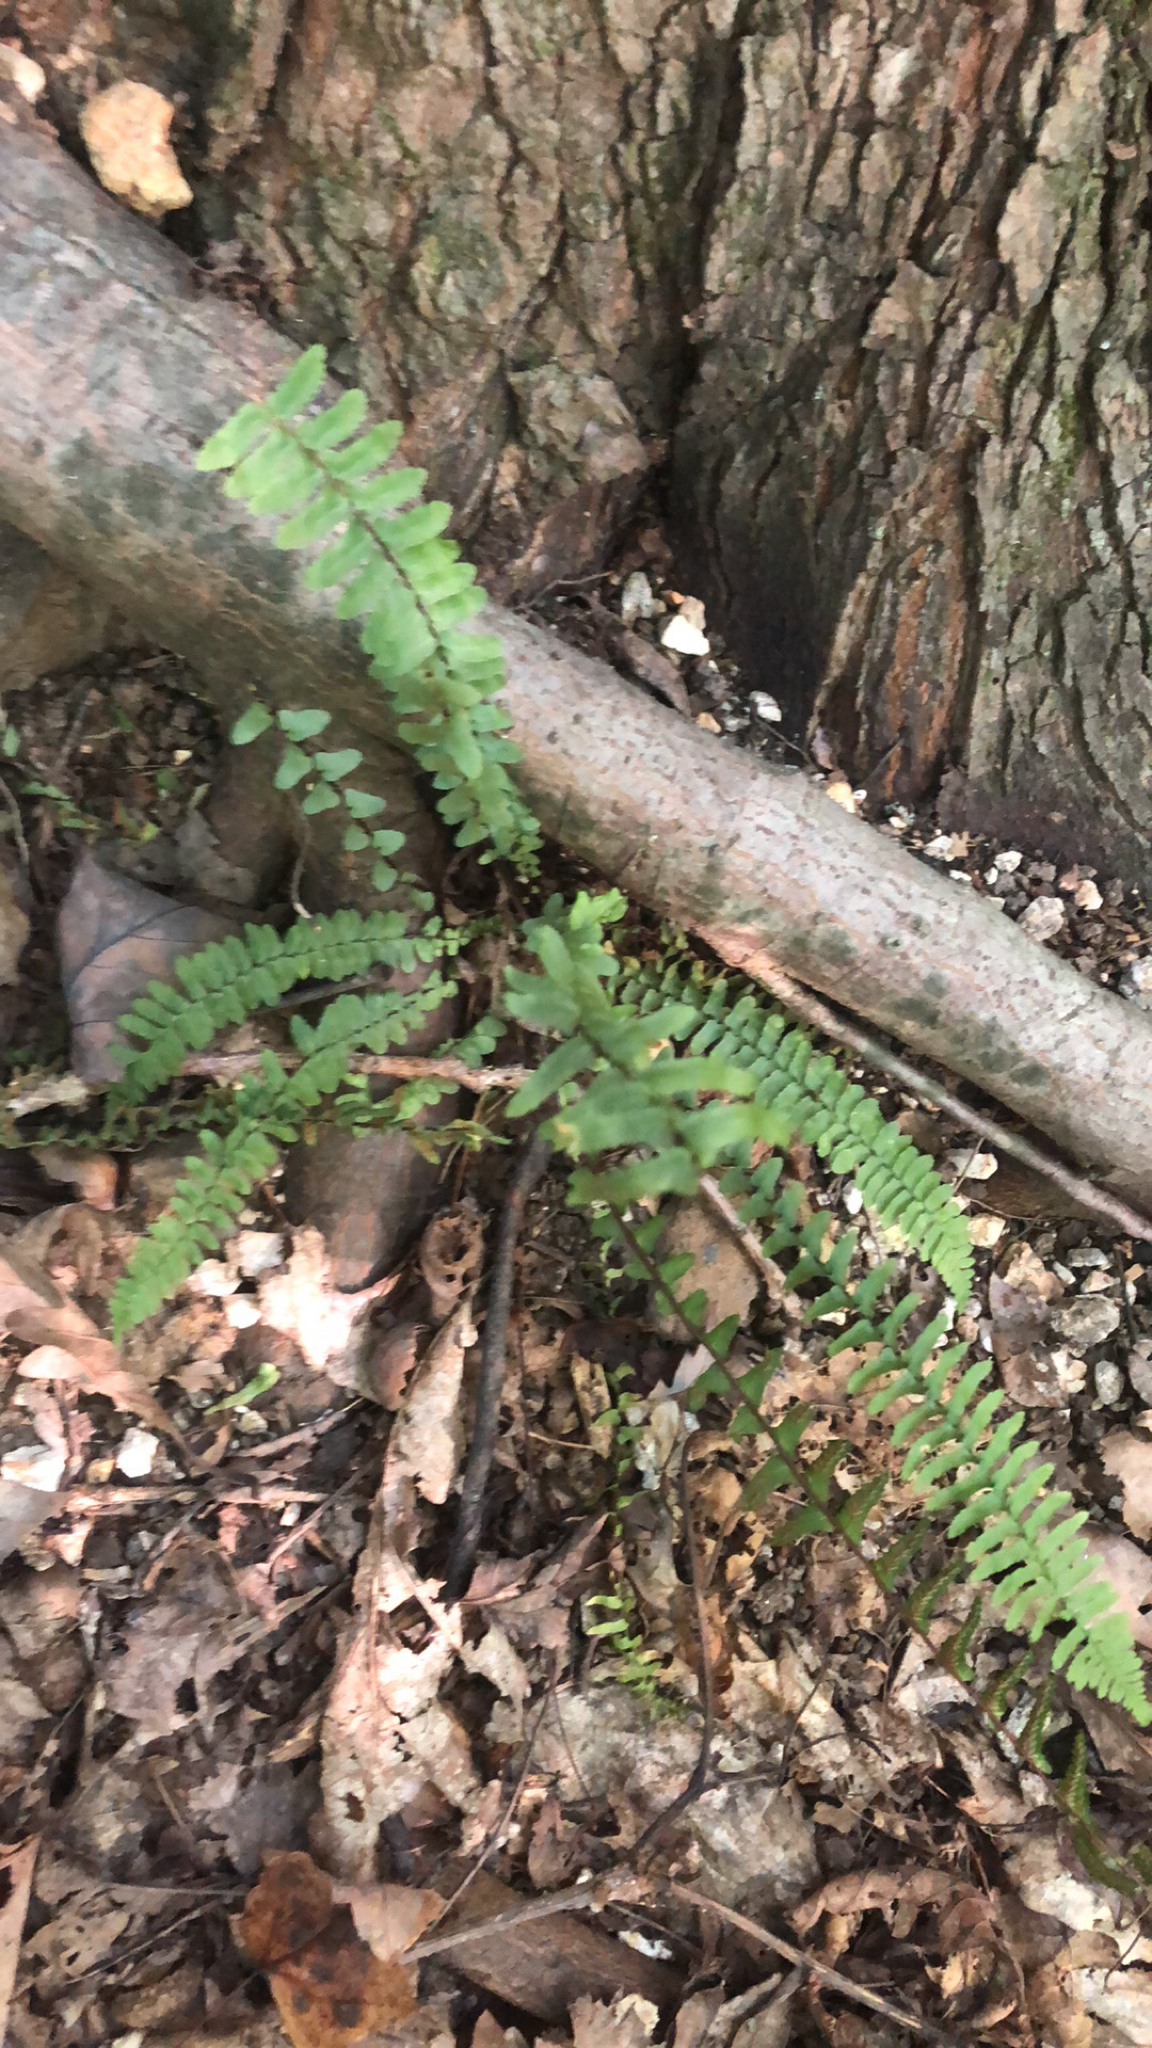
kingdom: Plantae
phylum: Tracheophyta
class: Polypodiopsida
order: Polypodiales
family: Aspleniaceae
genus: Asplenium
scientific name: Asplenium platyneuron
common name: Ebony spleenwort
